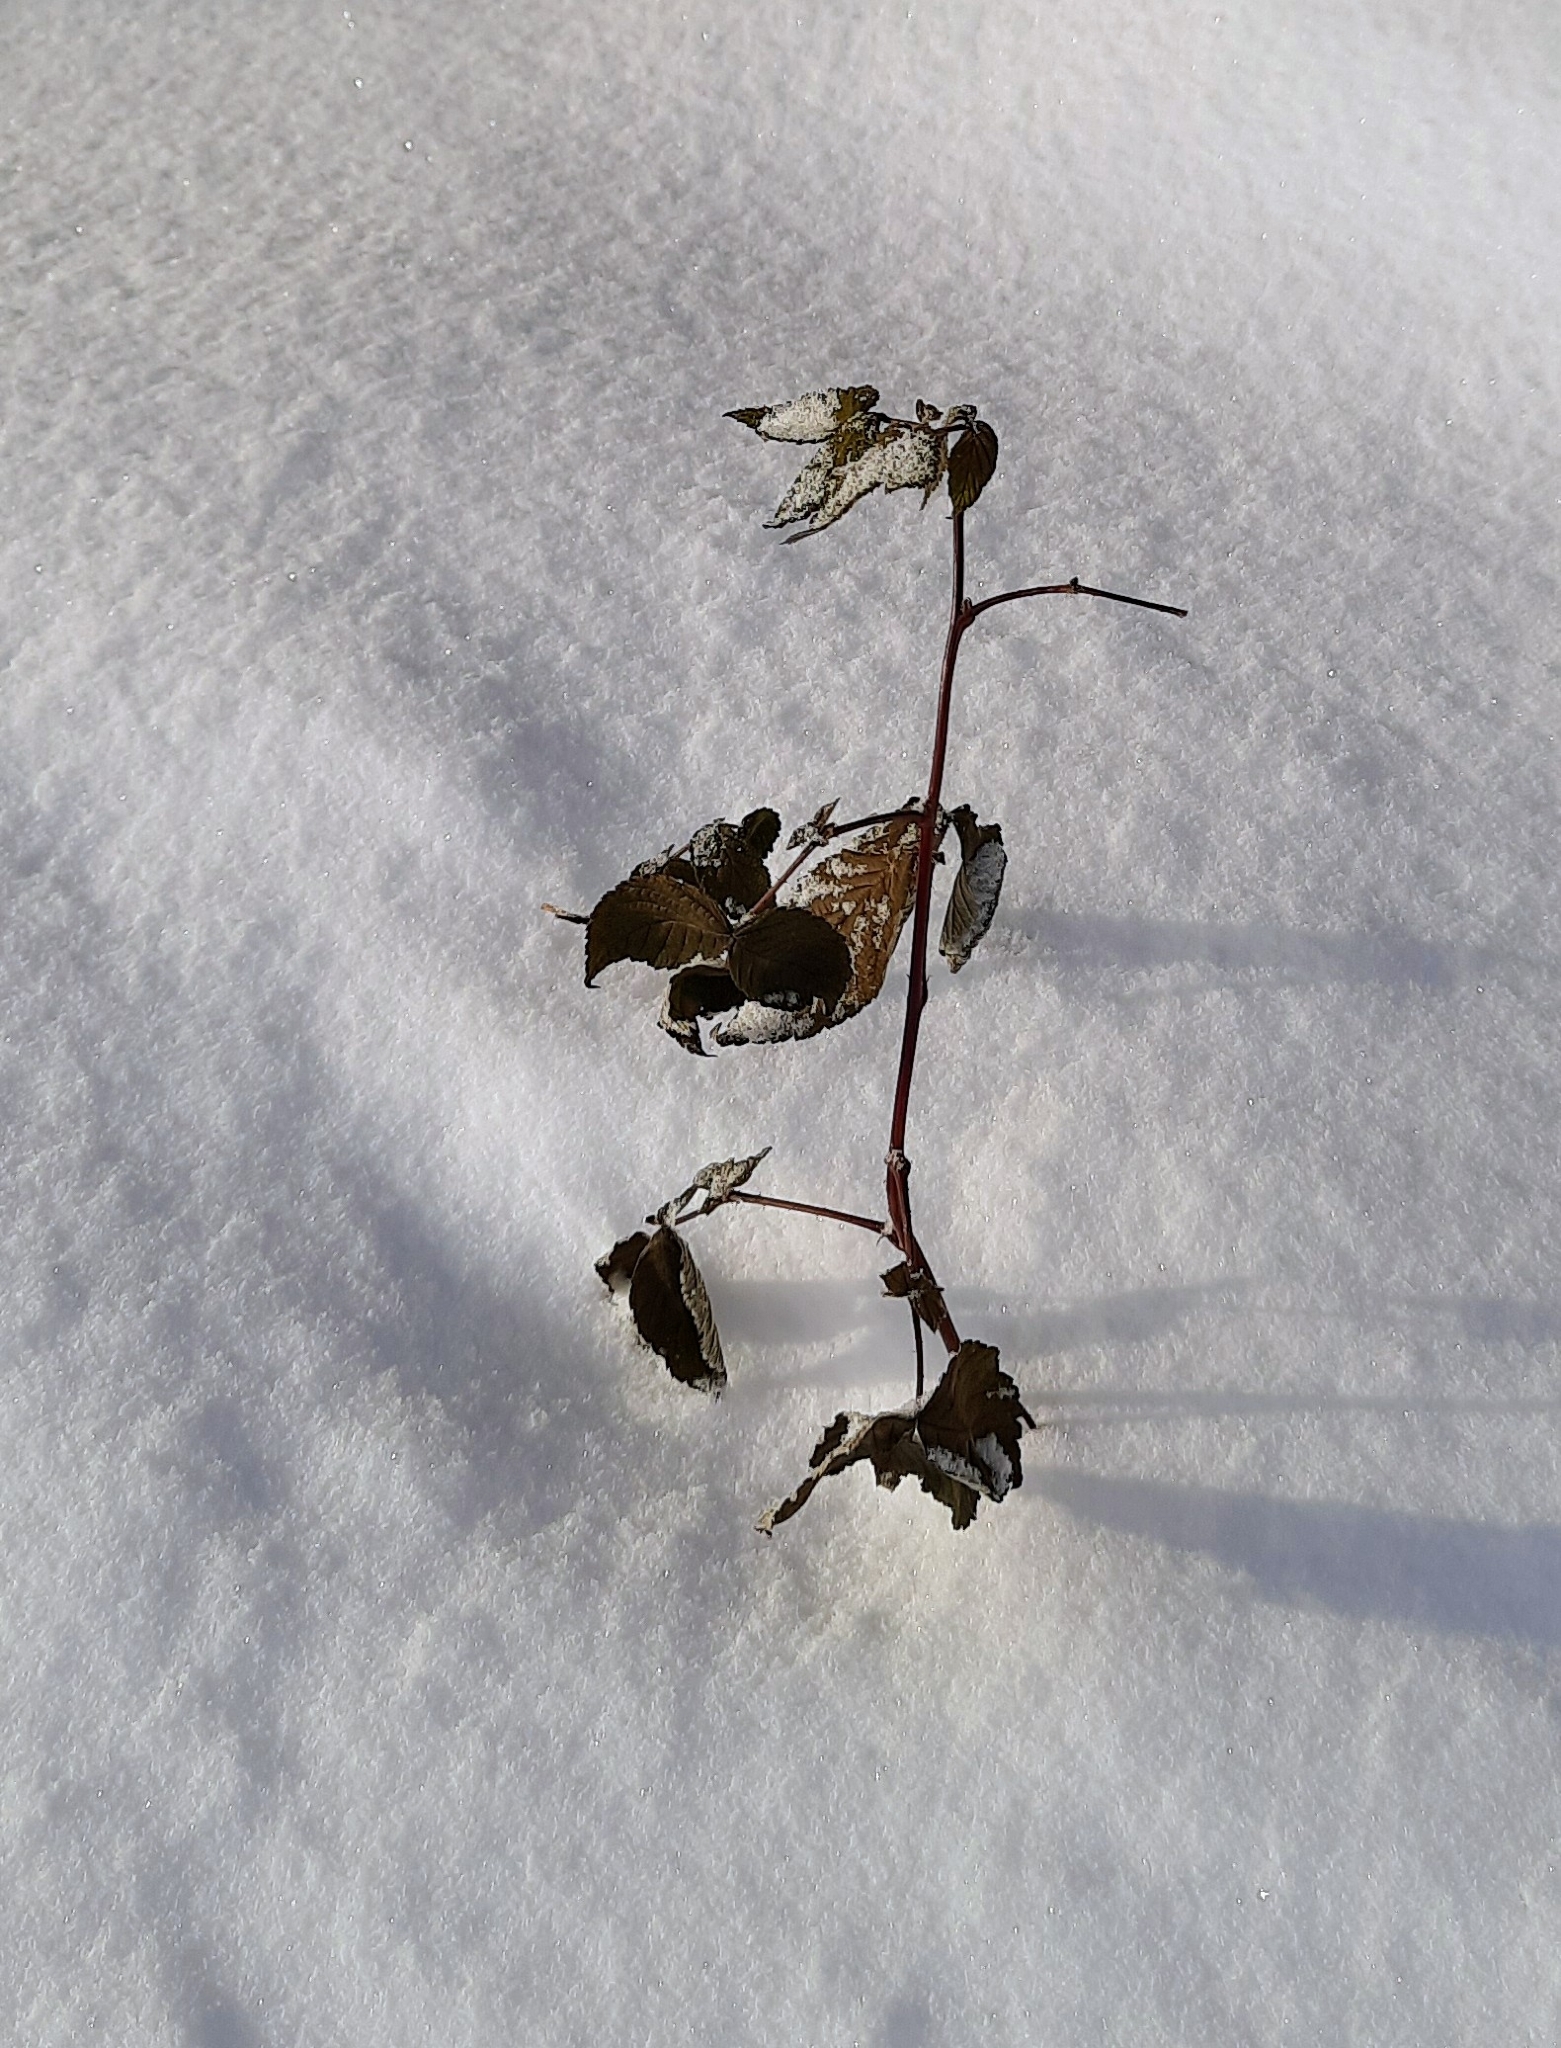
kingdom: Plantae
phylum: Tracheophyta
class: Magnoliopsida
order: Rosales
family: Rosaceae
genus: Rubus
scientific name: Rubus idaeus
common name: Raspberry
